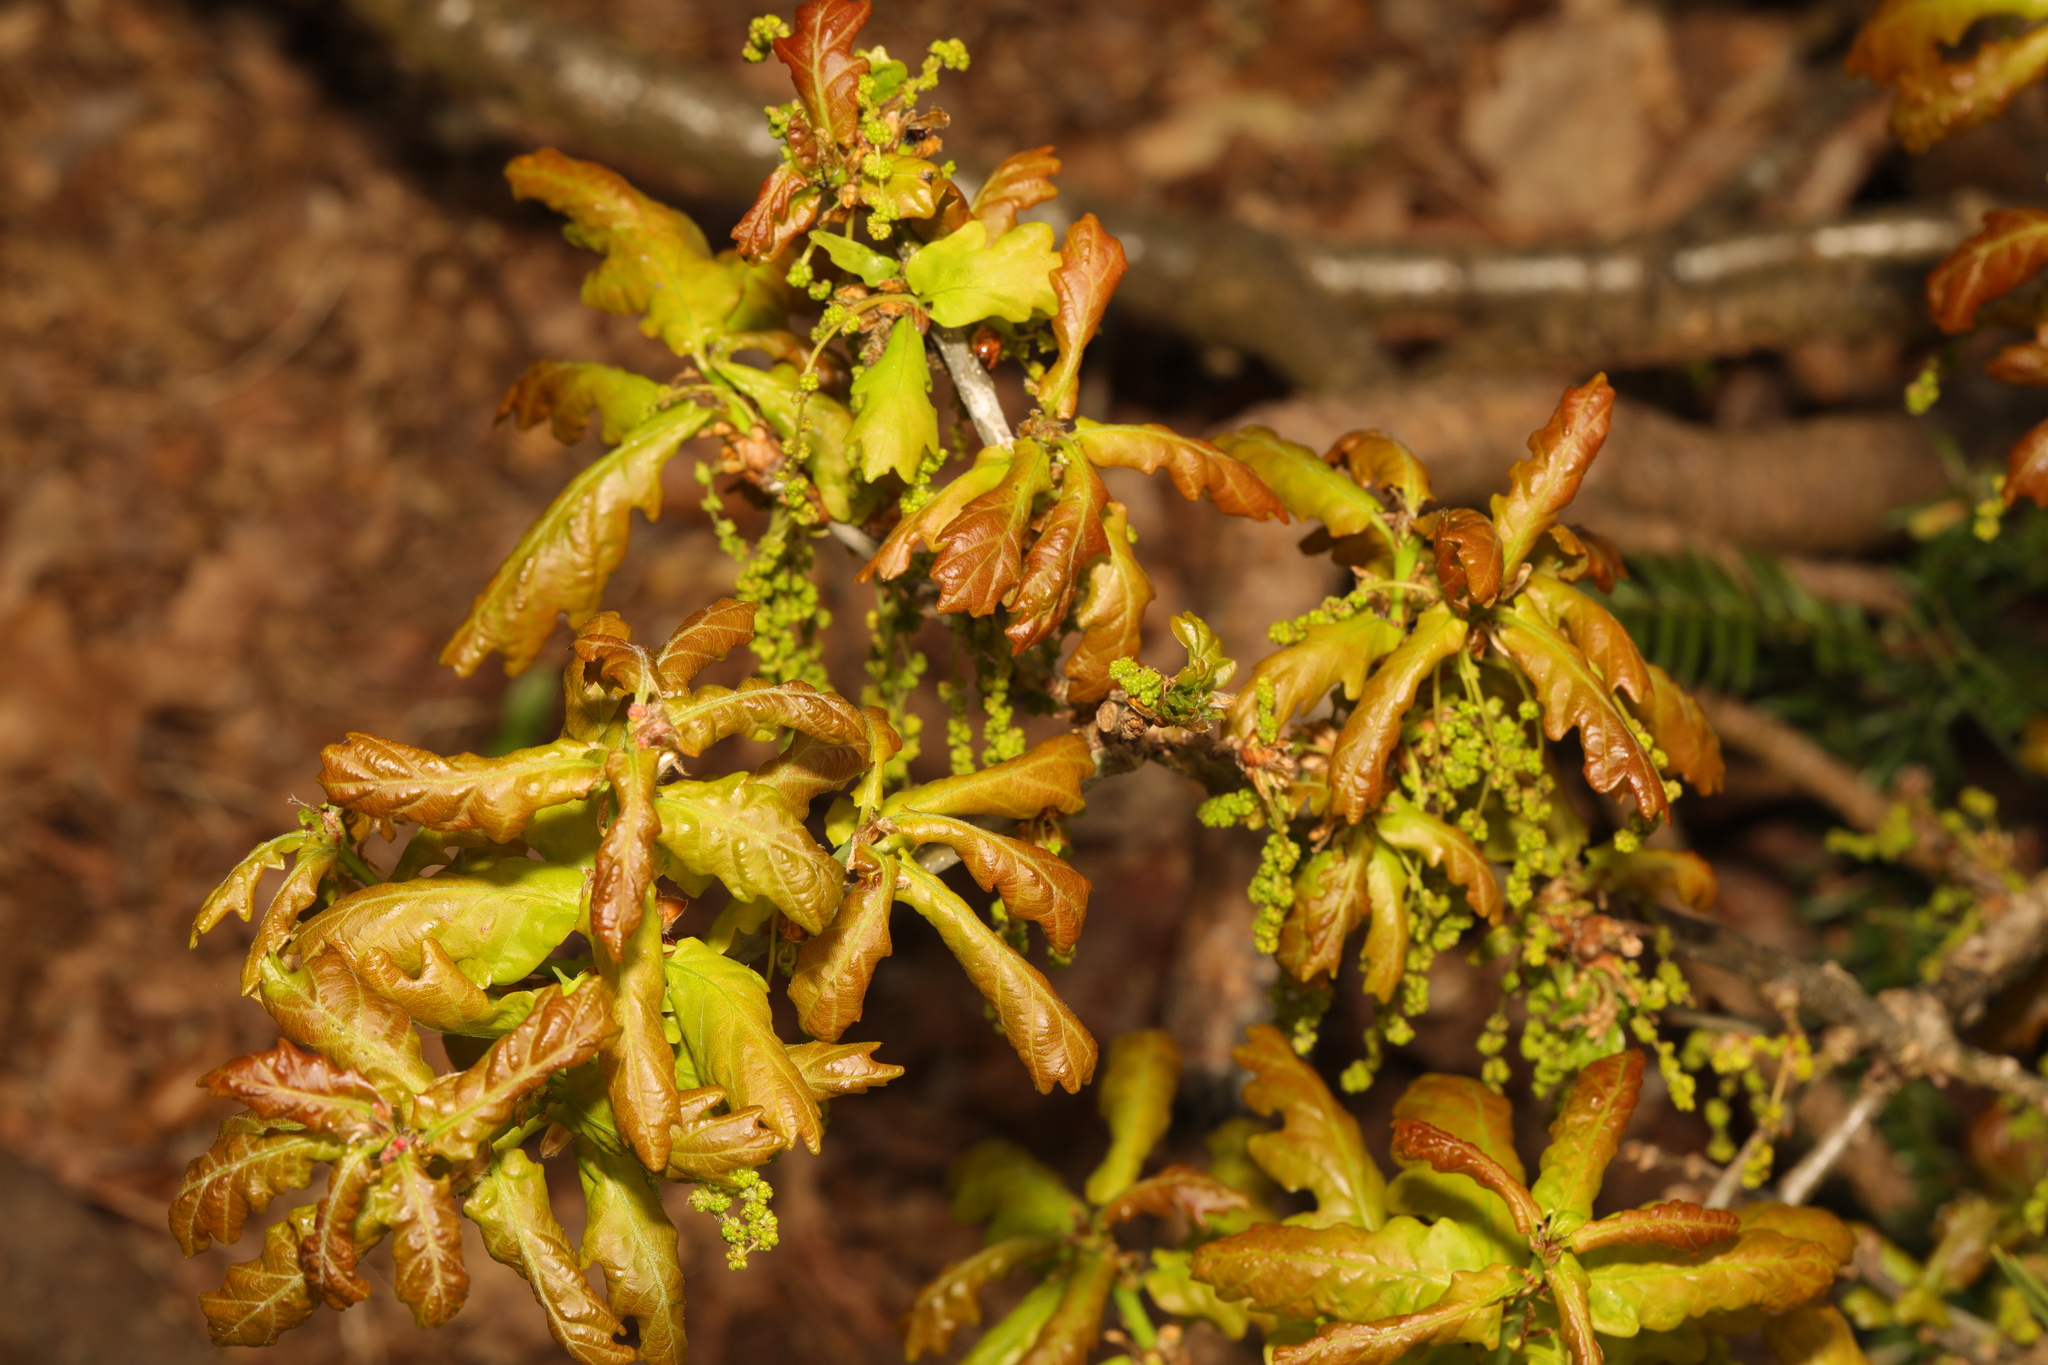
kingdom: Plantae
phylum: Tracheophyta
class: Magnoliopsida
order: Fagales
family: Fagaceae
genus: Quercus
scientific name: Quercus robur
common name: Pedunculate oak
